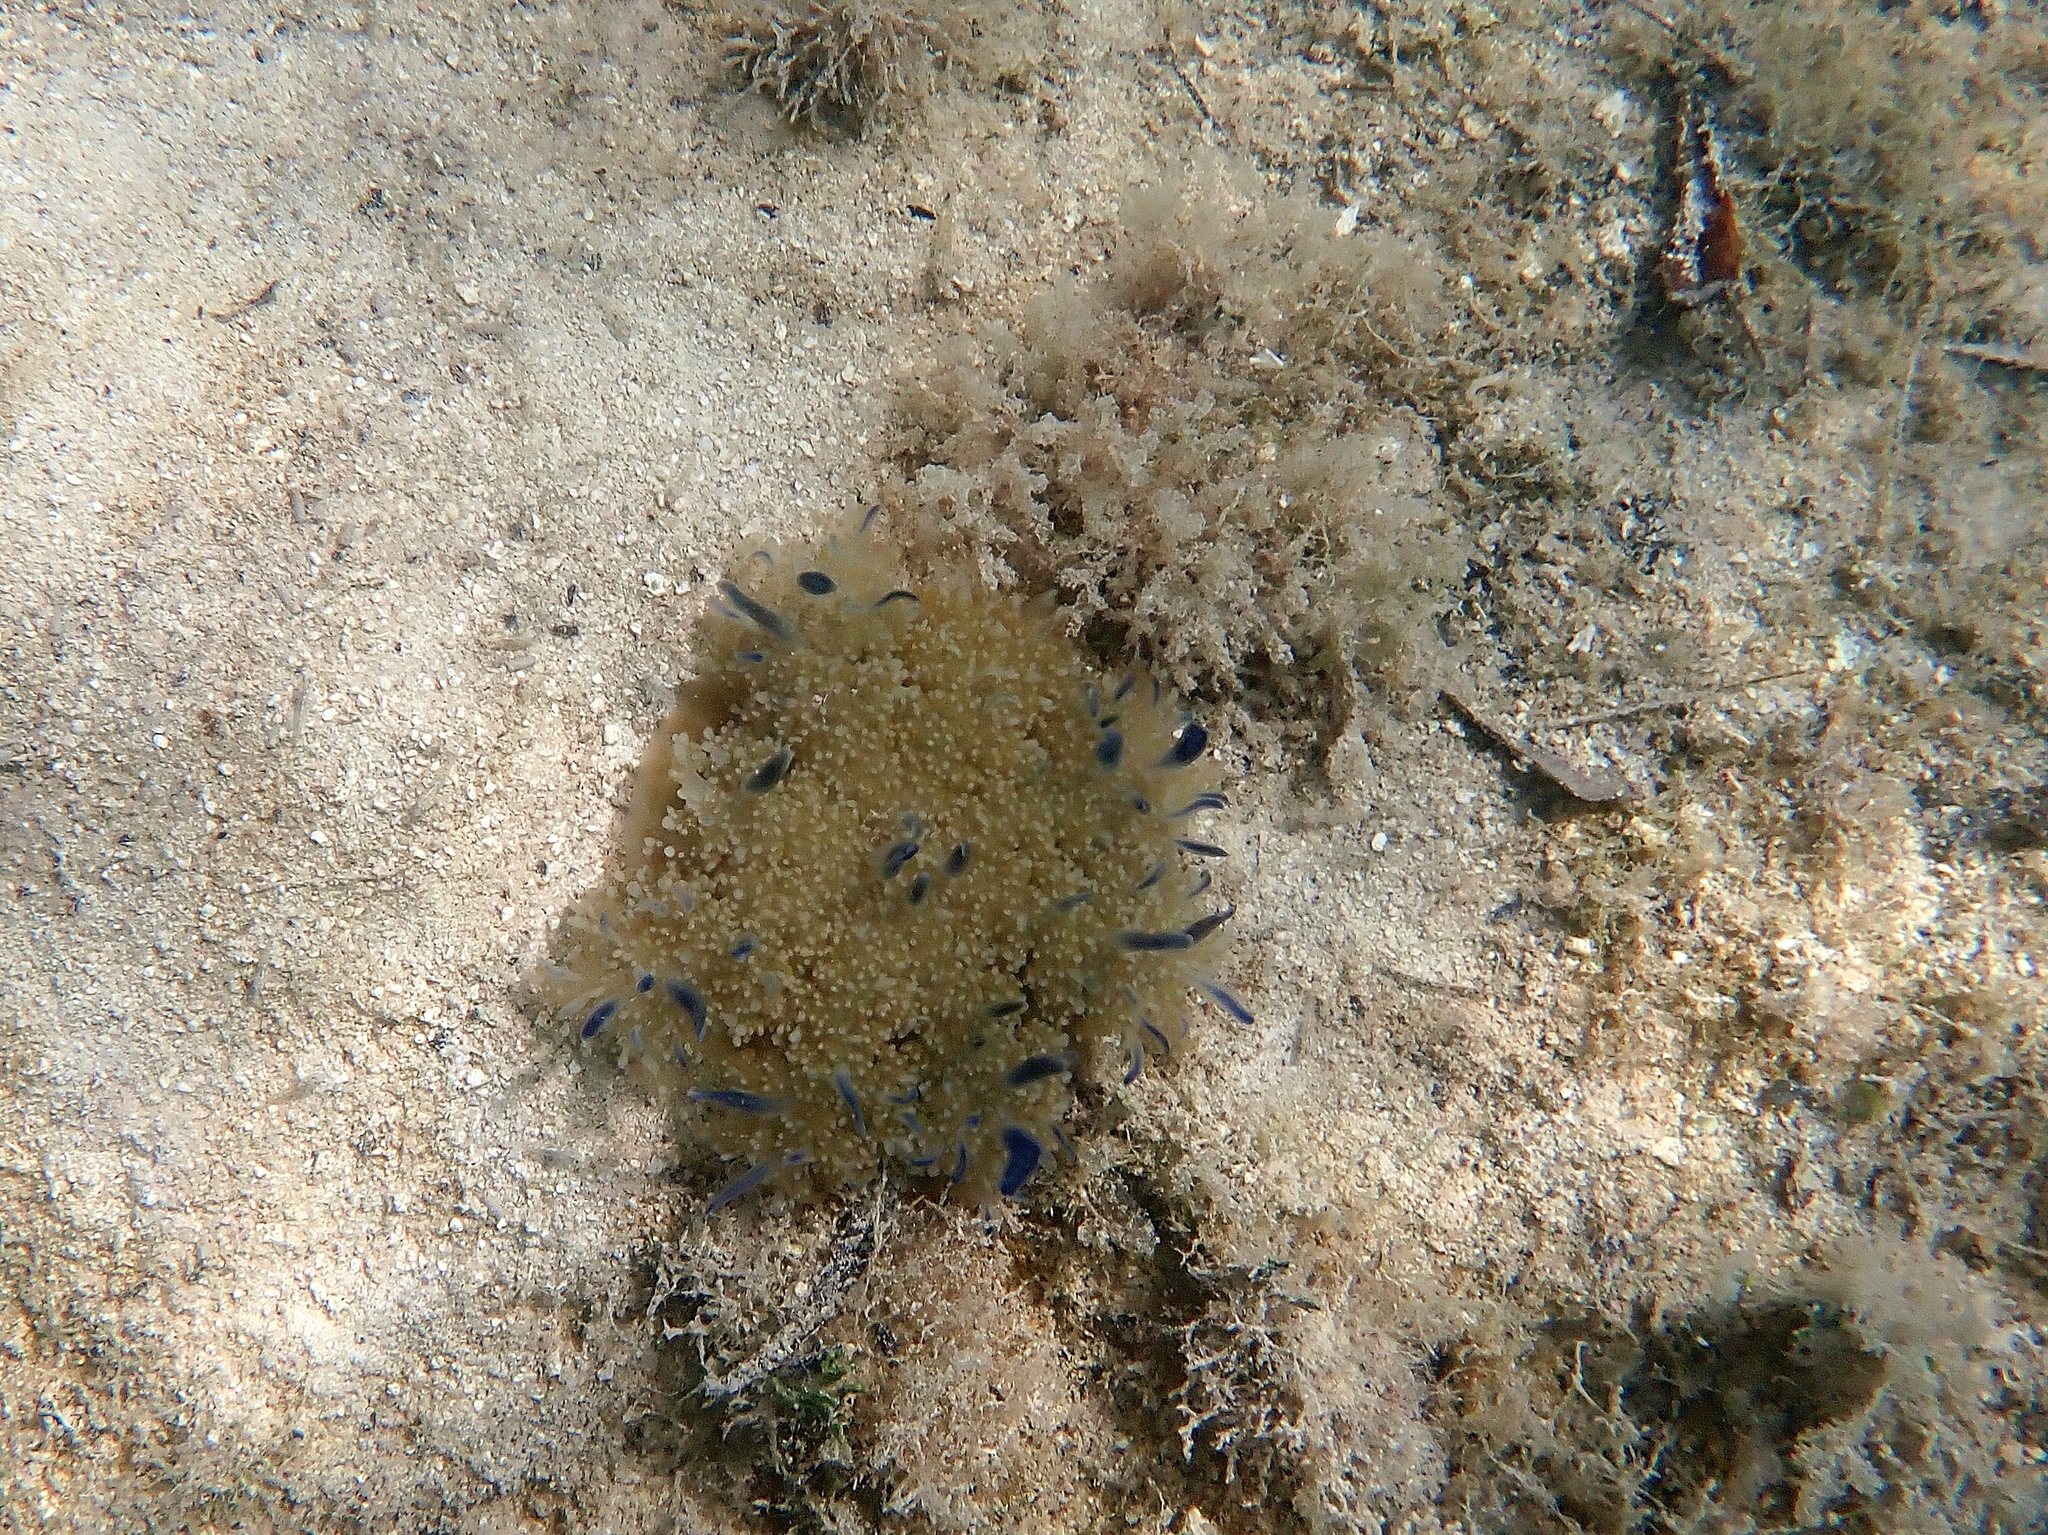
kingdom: Animalia
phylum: Cnidaria
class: Scyphozoa
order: Rhizostomeae
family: Cassiopeidae
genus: Cassiopea
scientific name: Cassiopea andromeda
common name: Upside-down jellyfish
